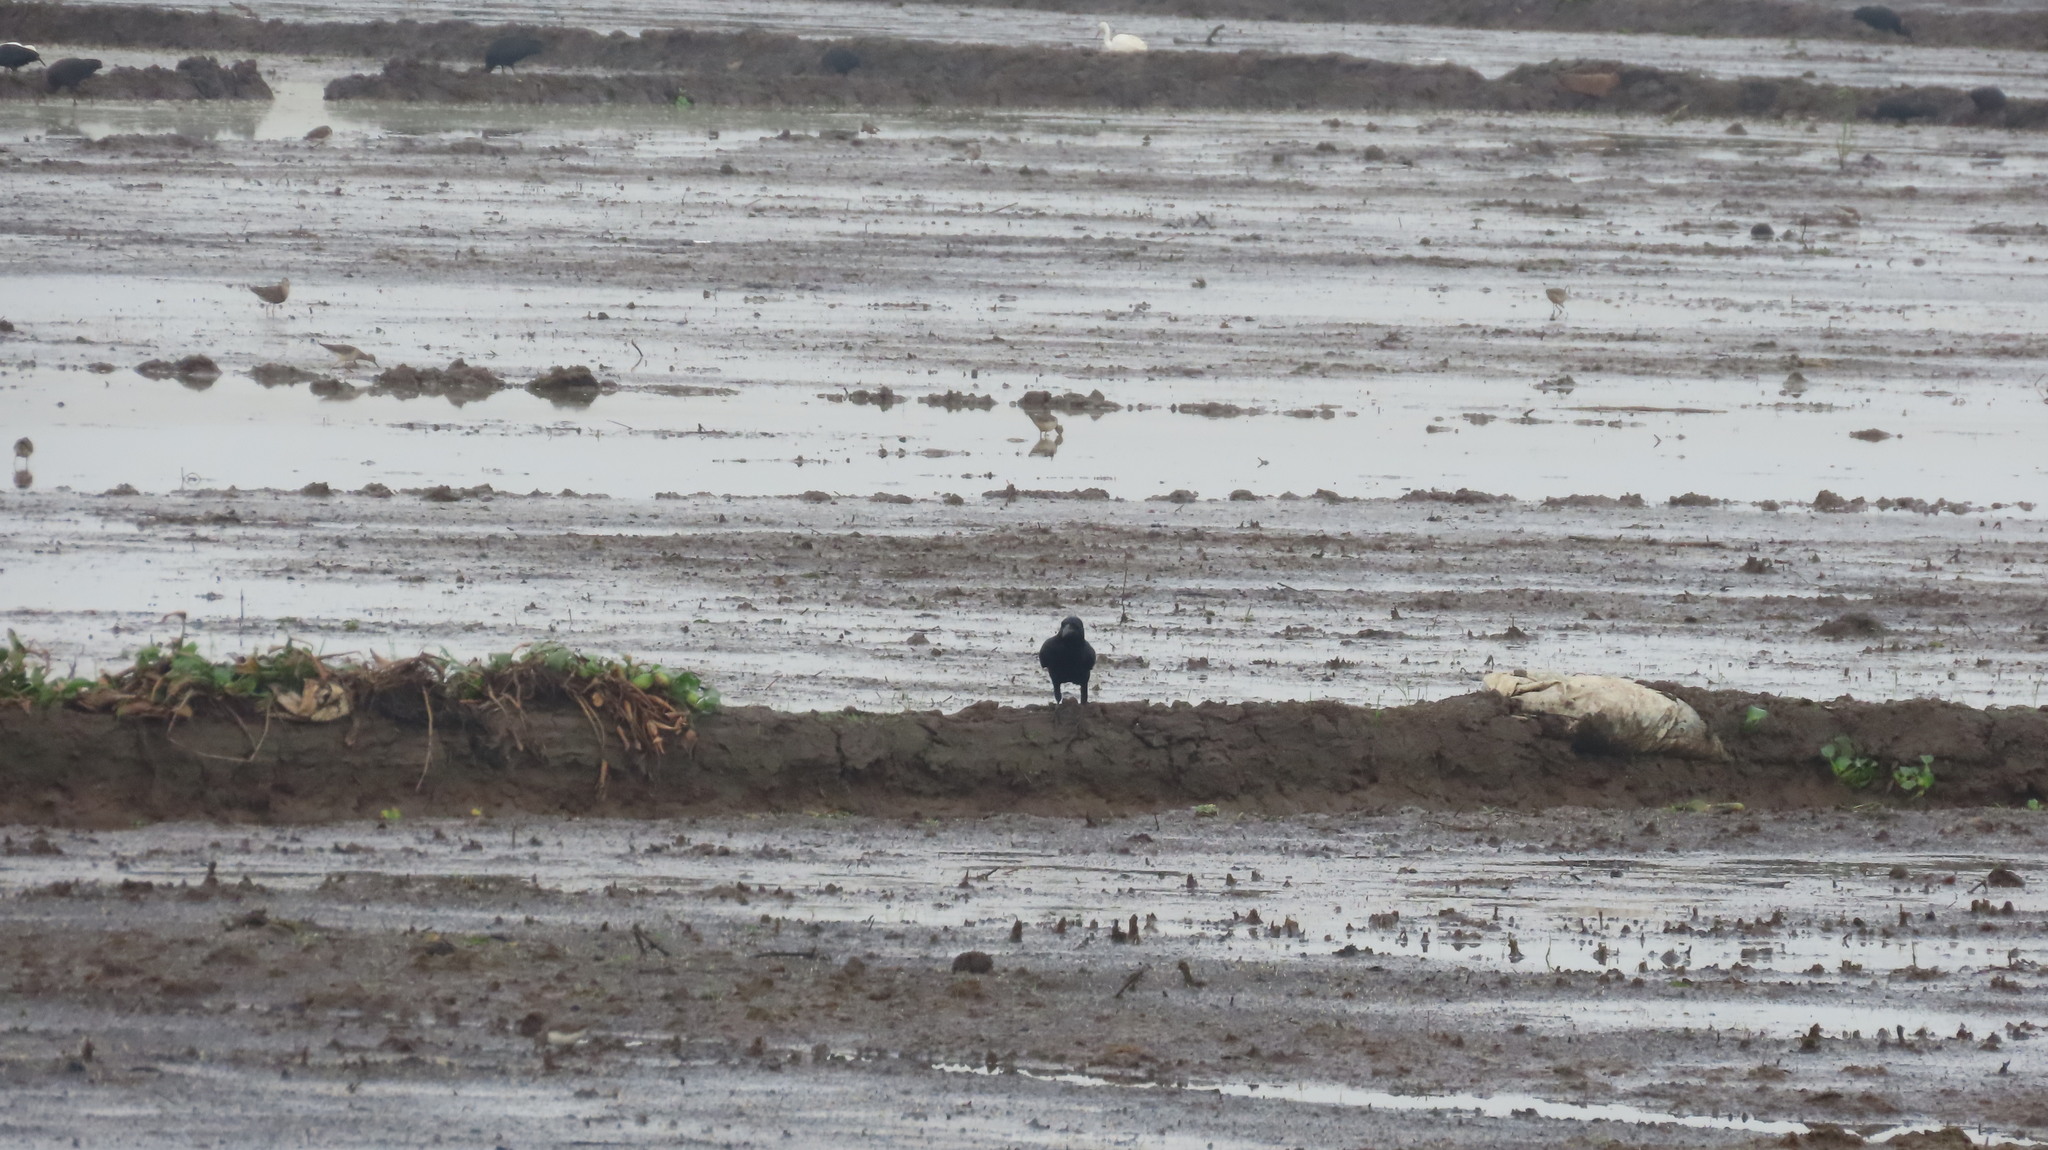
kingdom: Animalia
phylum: Chordata
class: Aves
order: Passeriformes
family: Corvidae
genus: Corvus
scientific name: Corvus macrorhynchos
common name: Large-billed crow
